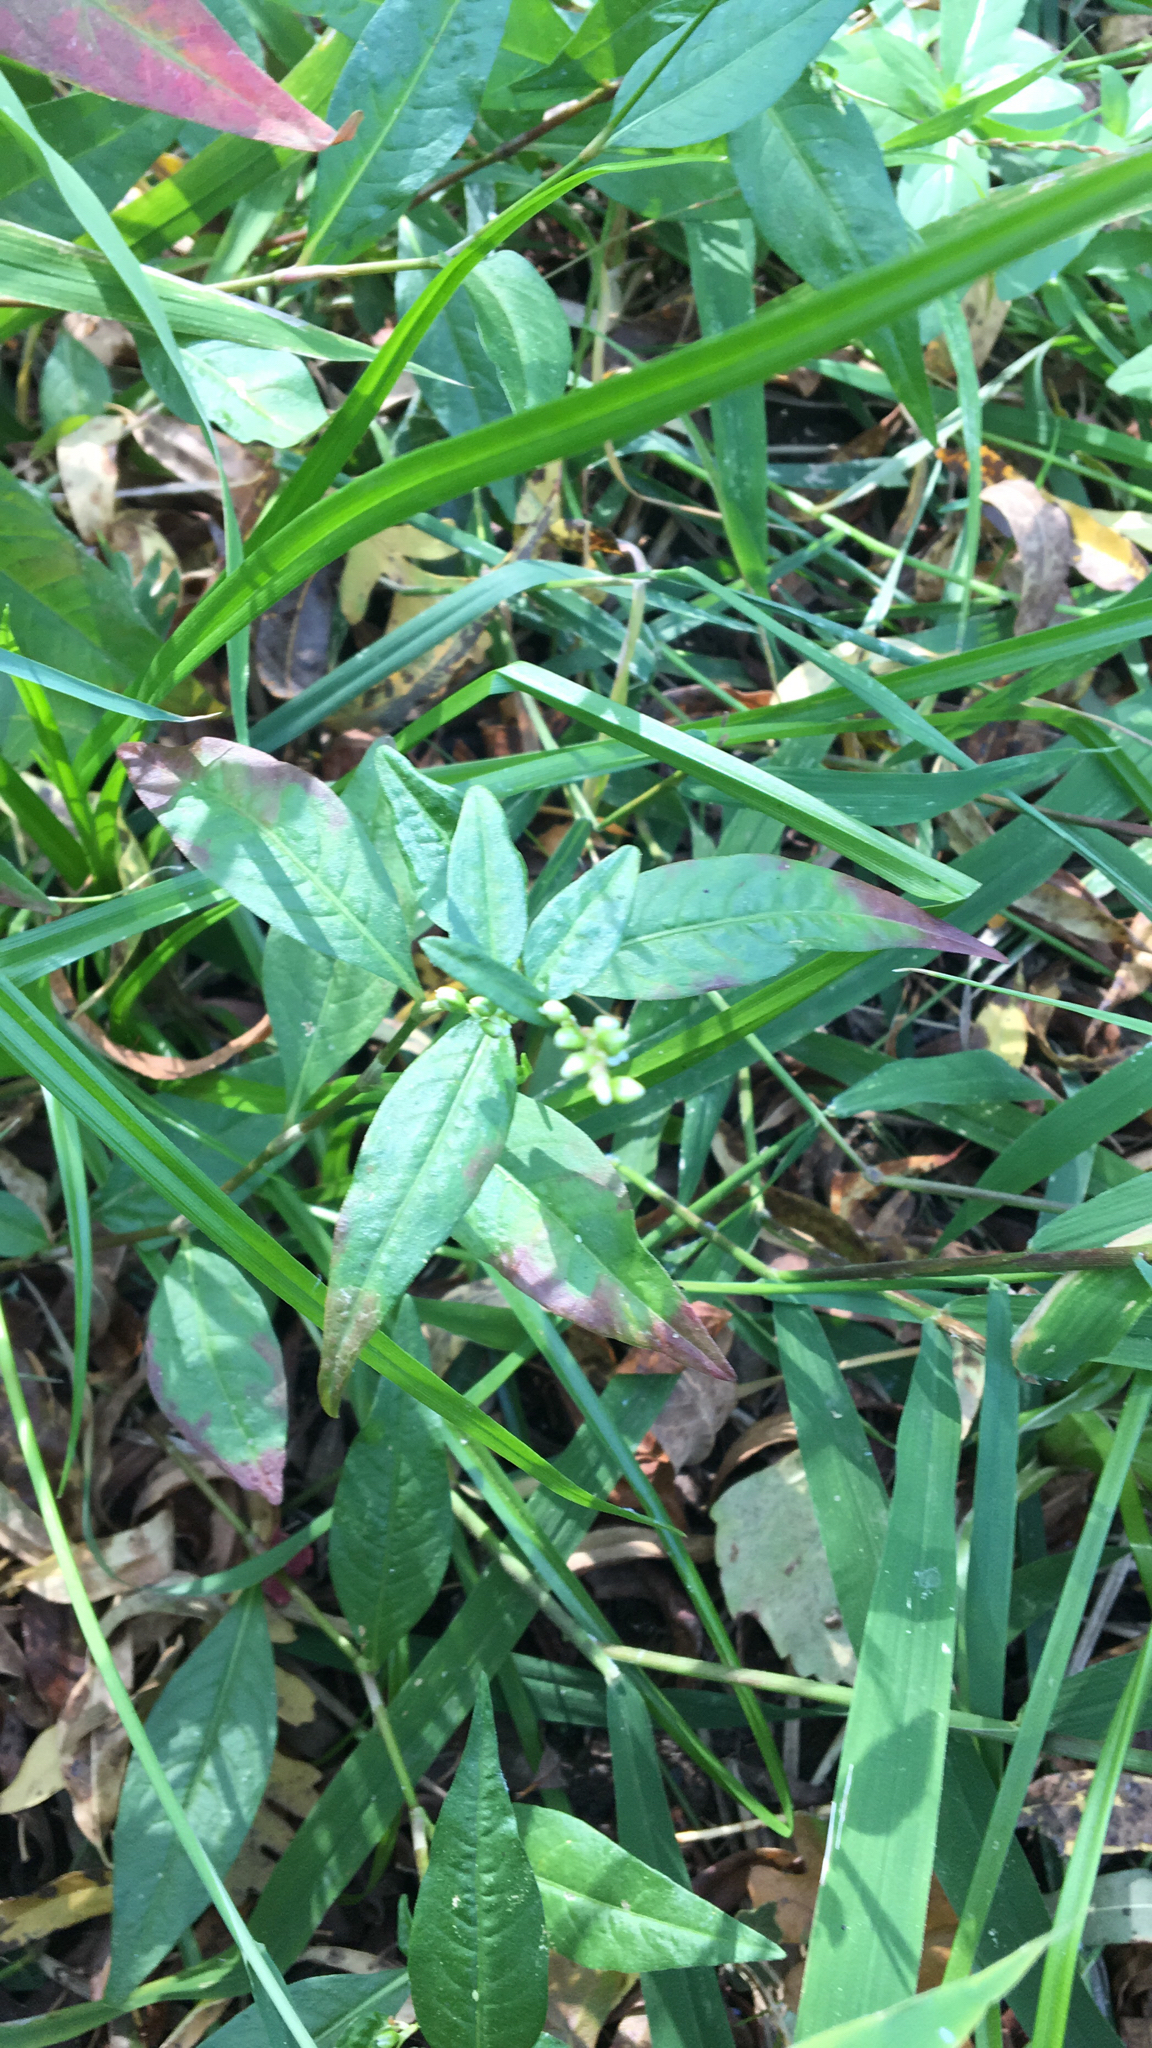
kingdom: Plantae
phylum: Tracheophyta
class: Magnoliopsida
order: Caryophyllales
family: Polygonaceae
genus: Persicaria
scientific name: Persicaria punctata
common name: Dotted smartweed
